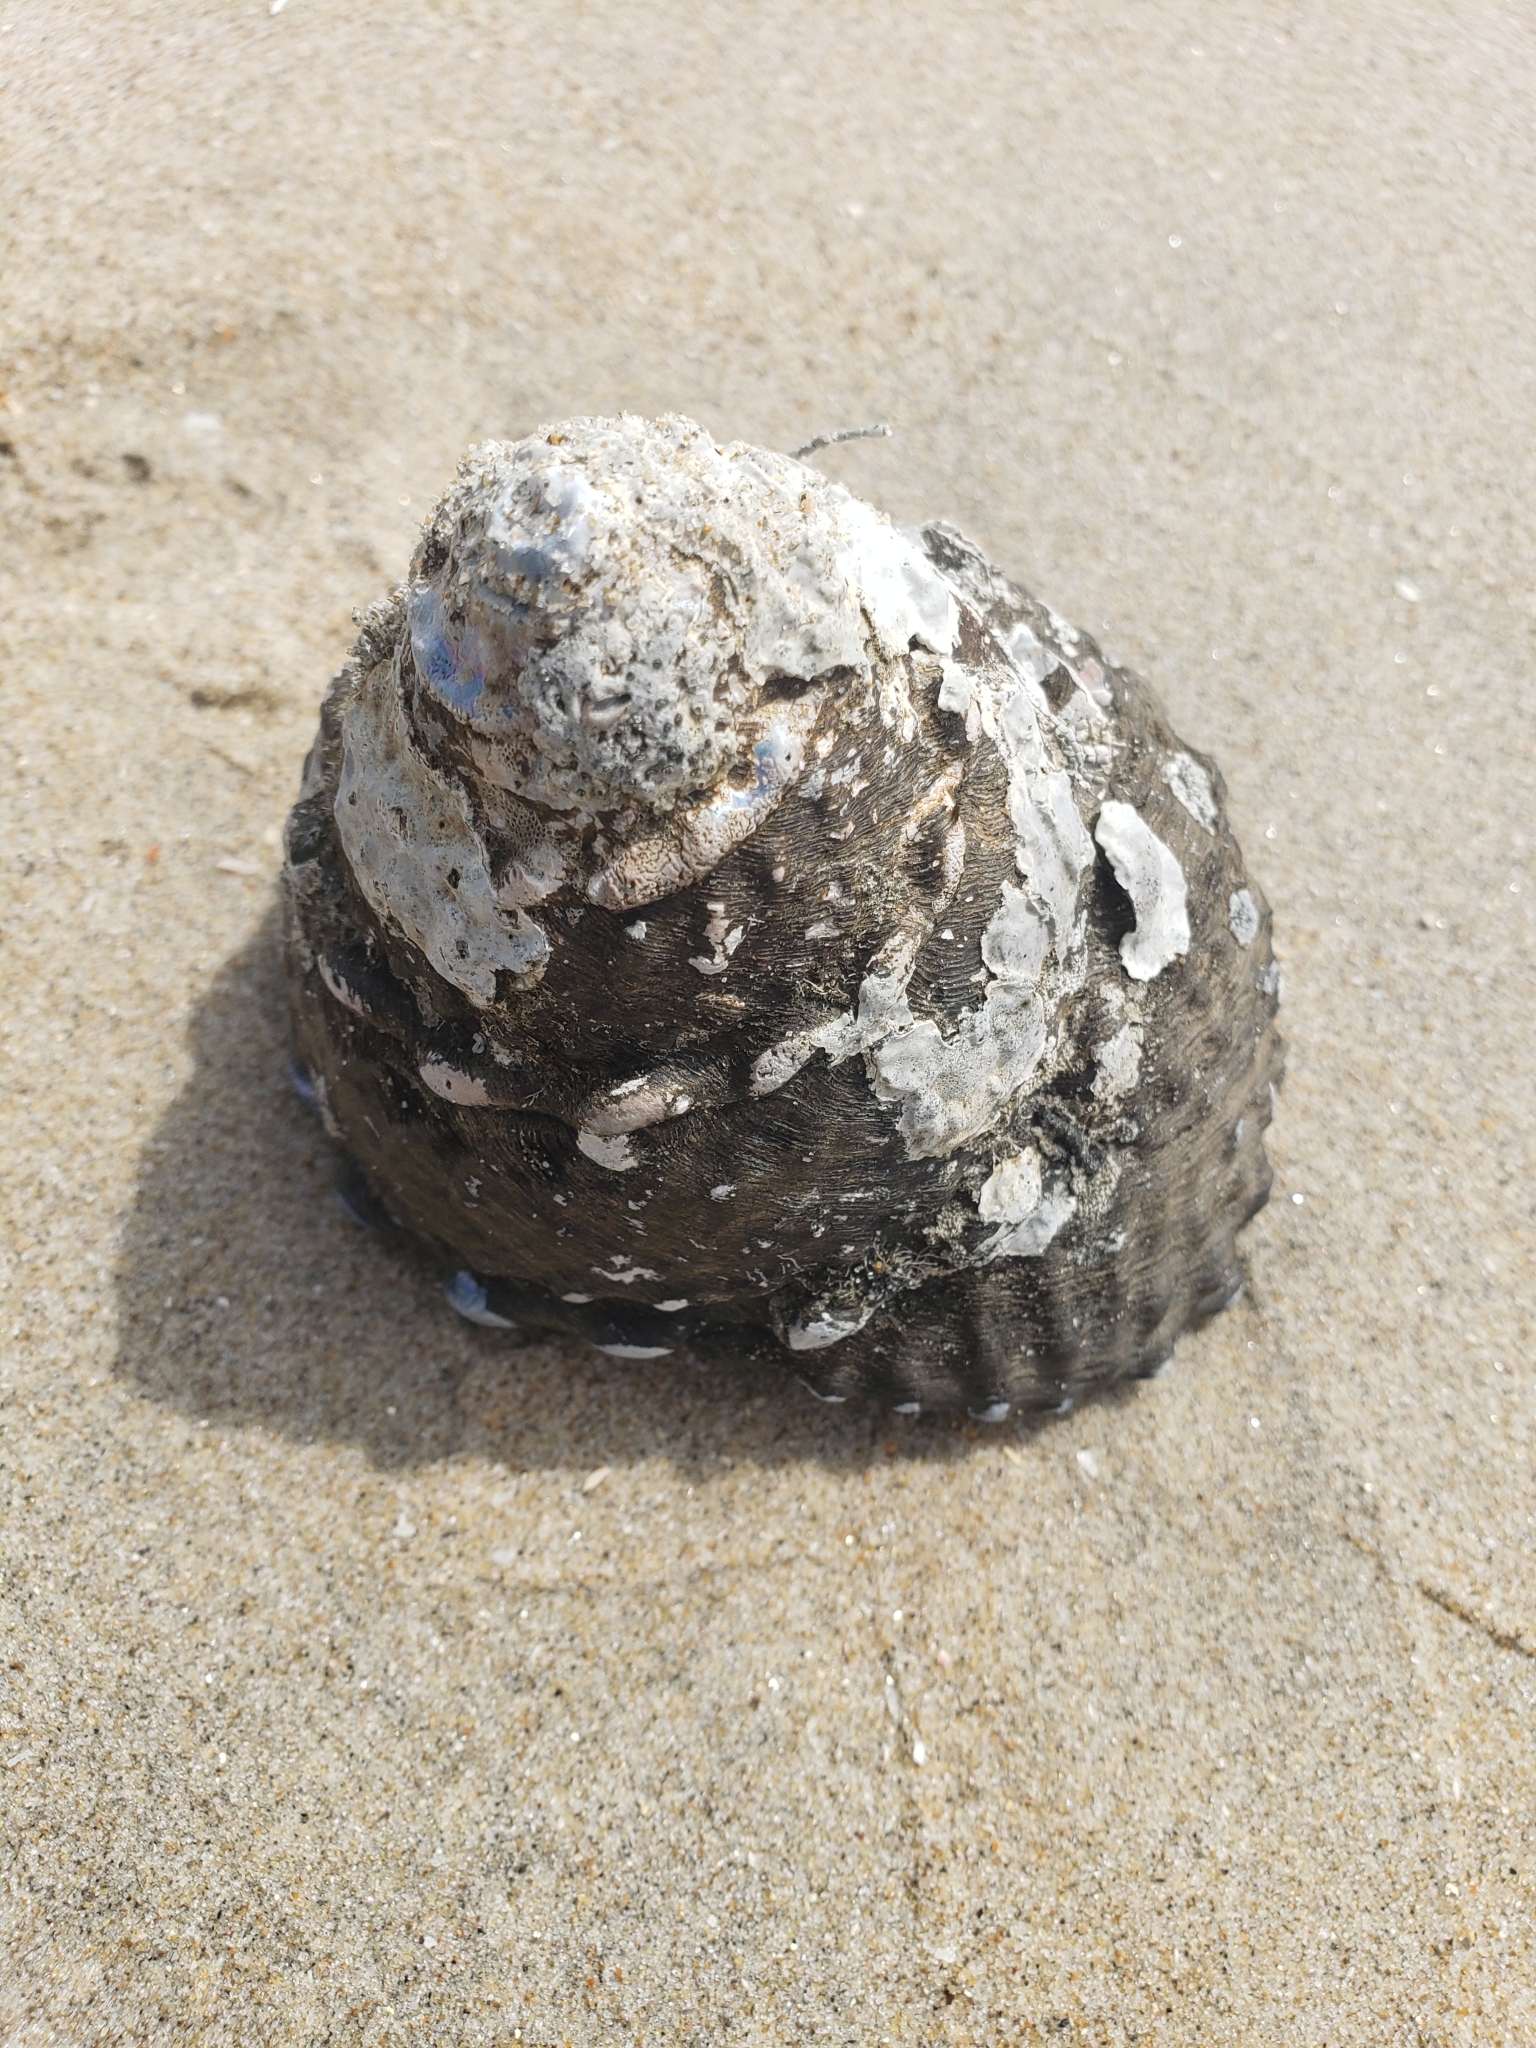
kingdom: Animalia
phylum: Mollusca
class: Gastropoda
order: Trochida
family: Turbinidae
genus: Megastraea
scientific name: Megastraea undosa
